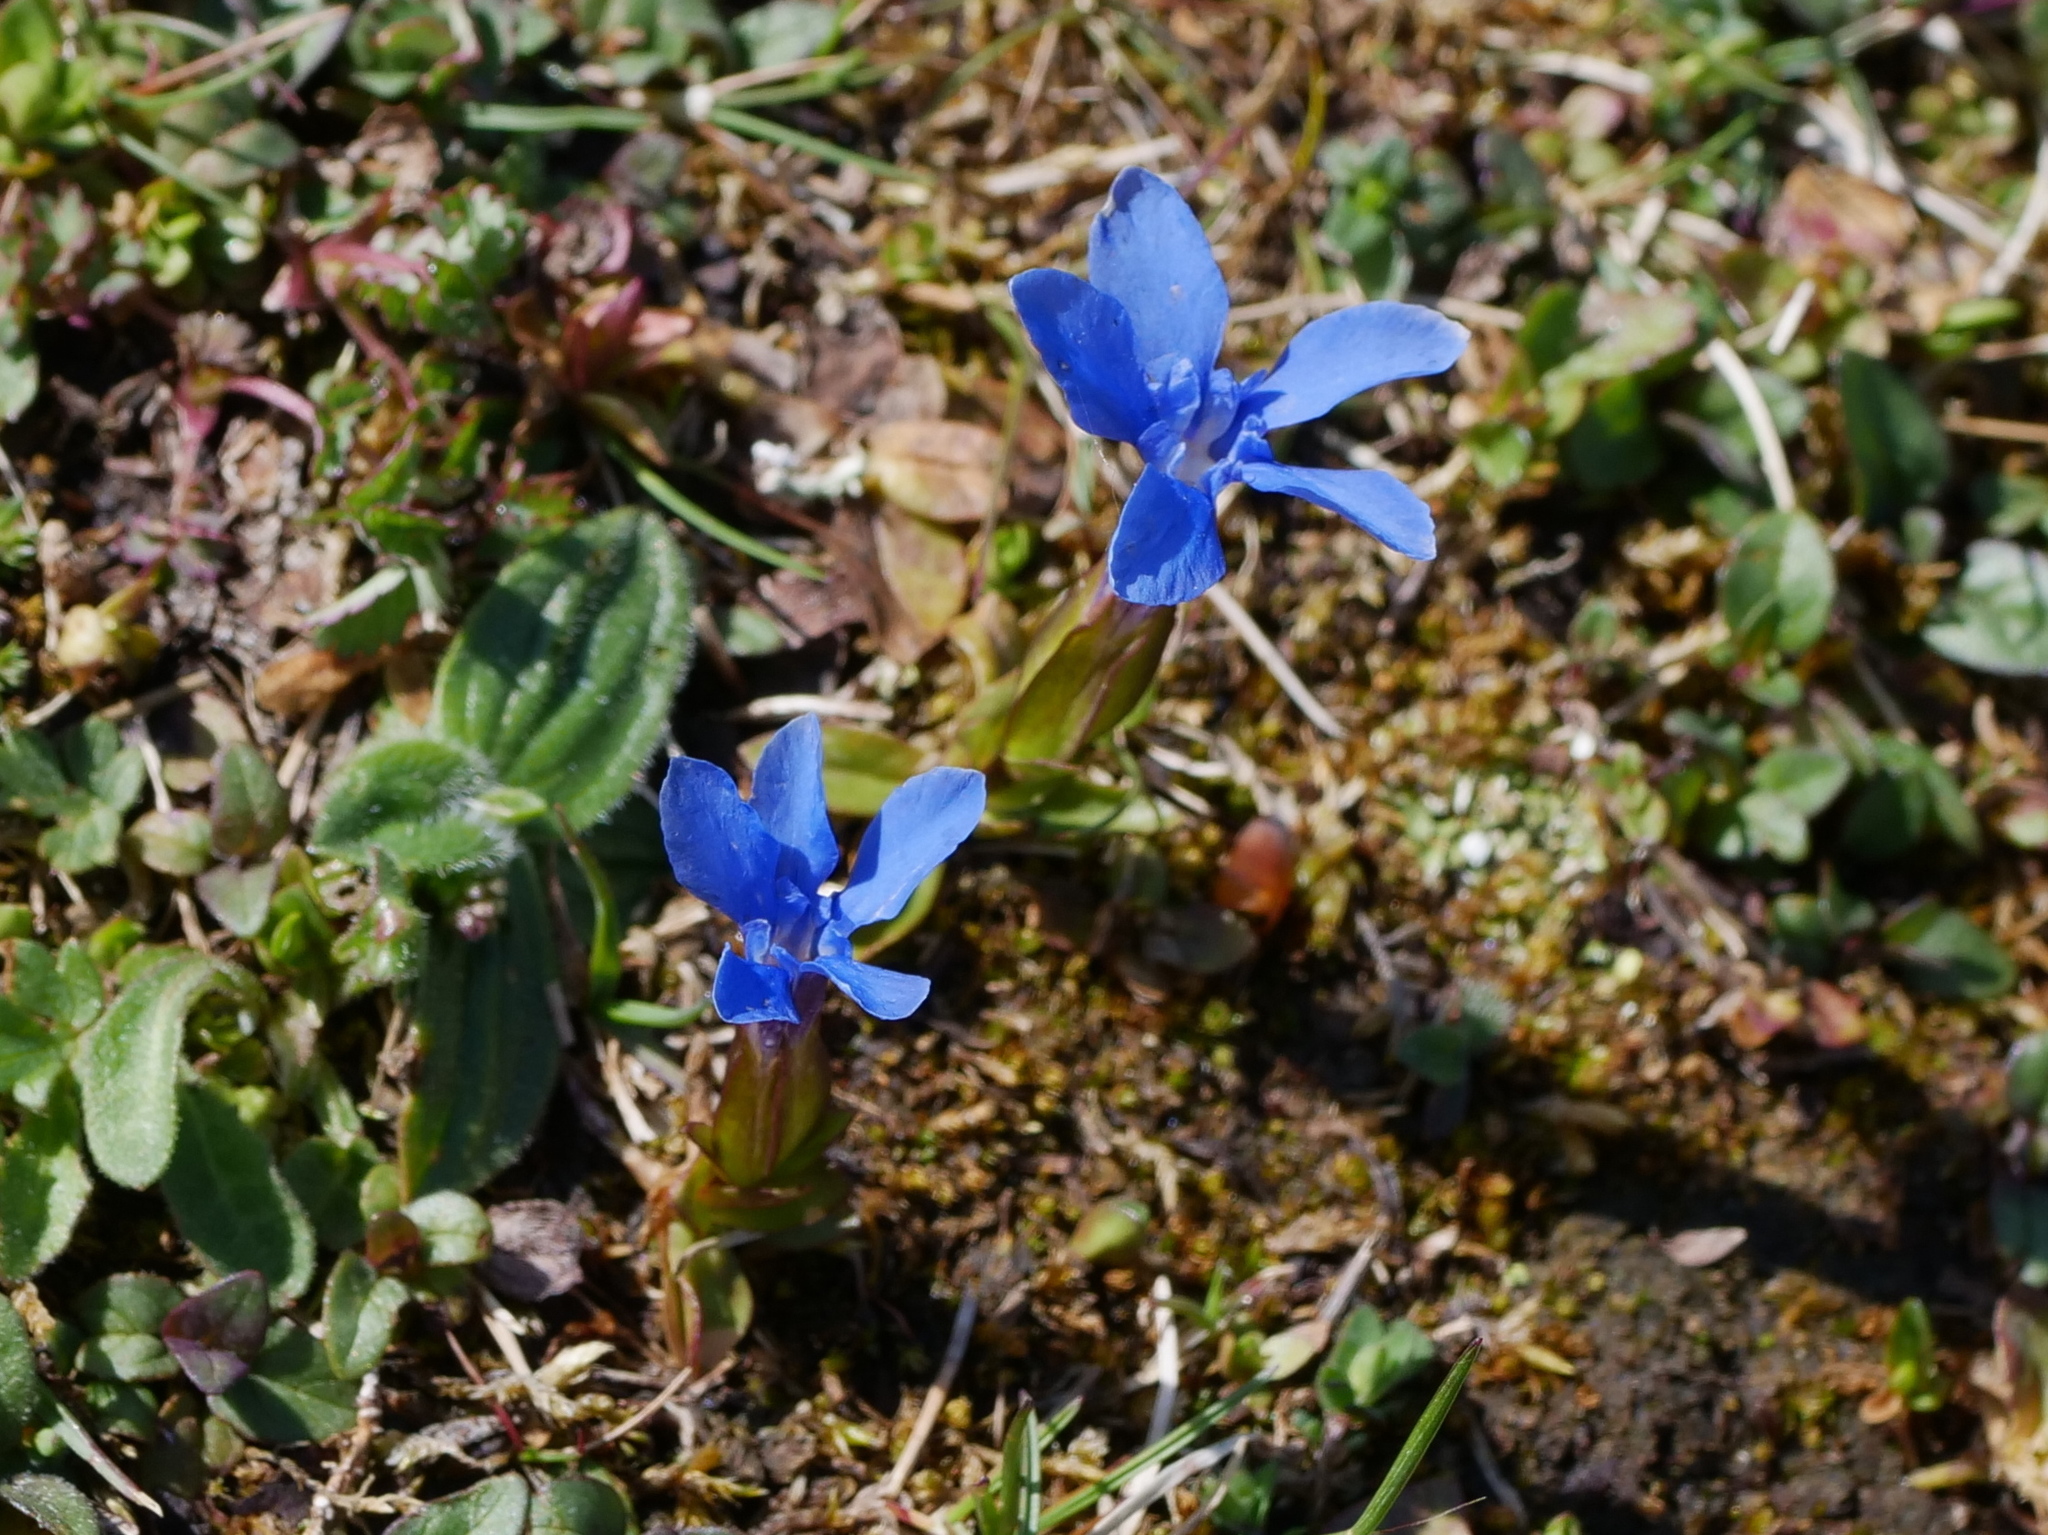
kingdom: Plantae
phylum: Tracheophyta
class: Magnoliopsida
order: Gentianales
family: Gentianaceae
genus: Gentiana
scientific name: Gentiana verna
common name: Spring gentian
